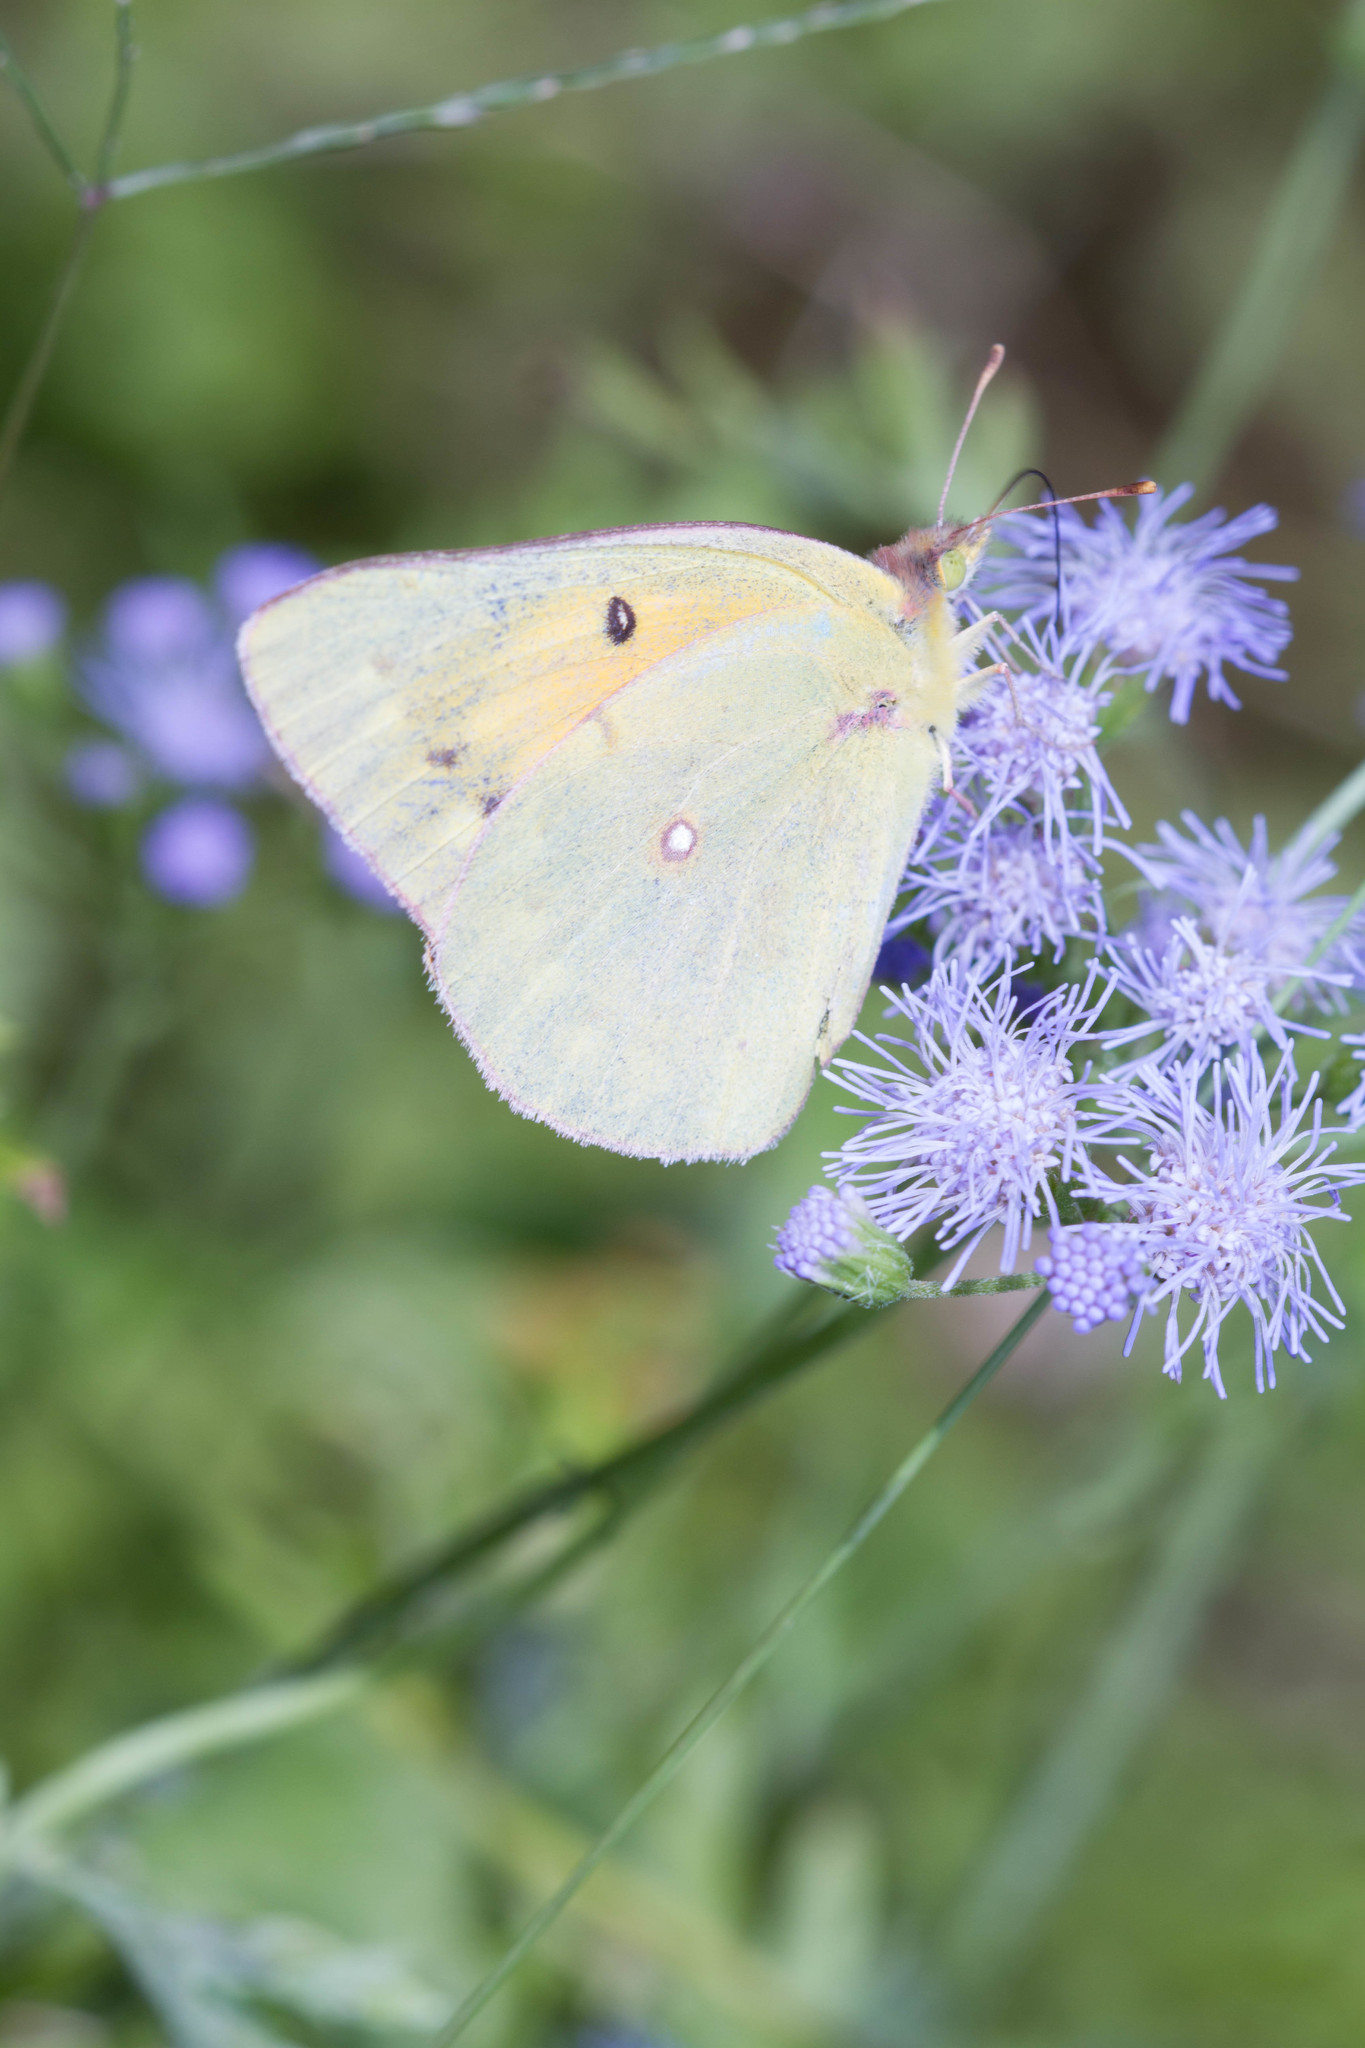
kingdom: Animalia
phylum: Arthropoda
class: Insecta
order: Lepidoptera
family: Pieridae
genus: Colias
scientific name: Colias eurytheme
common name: Alfalfa butterfly
